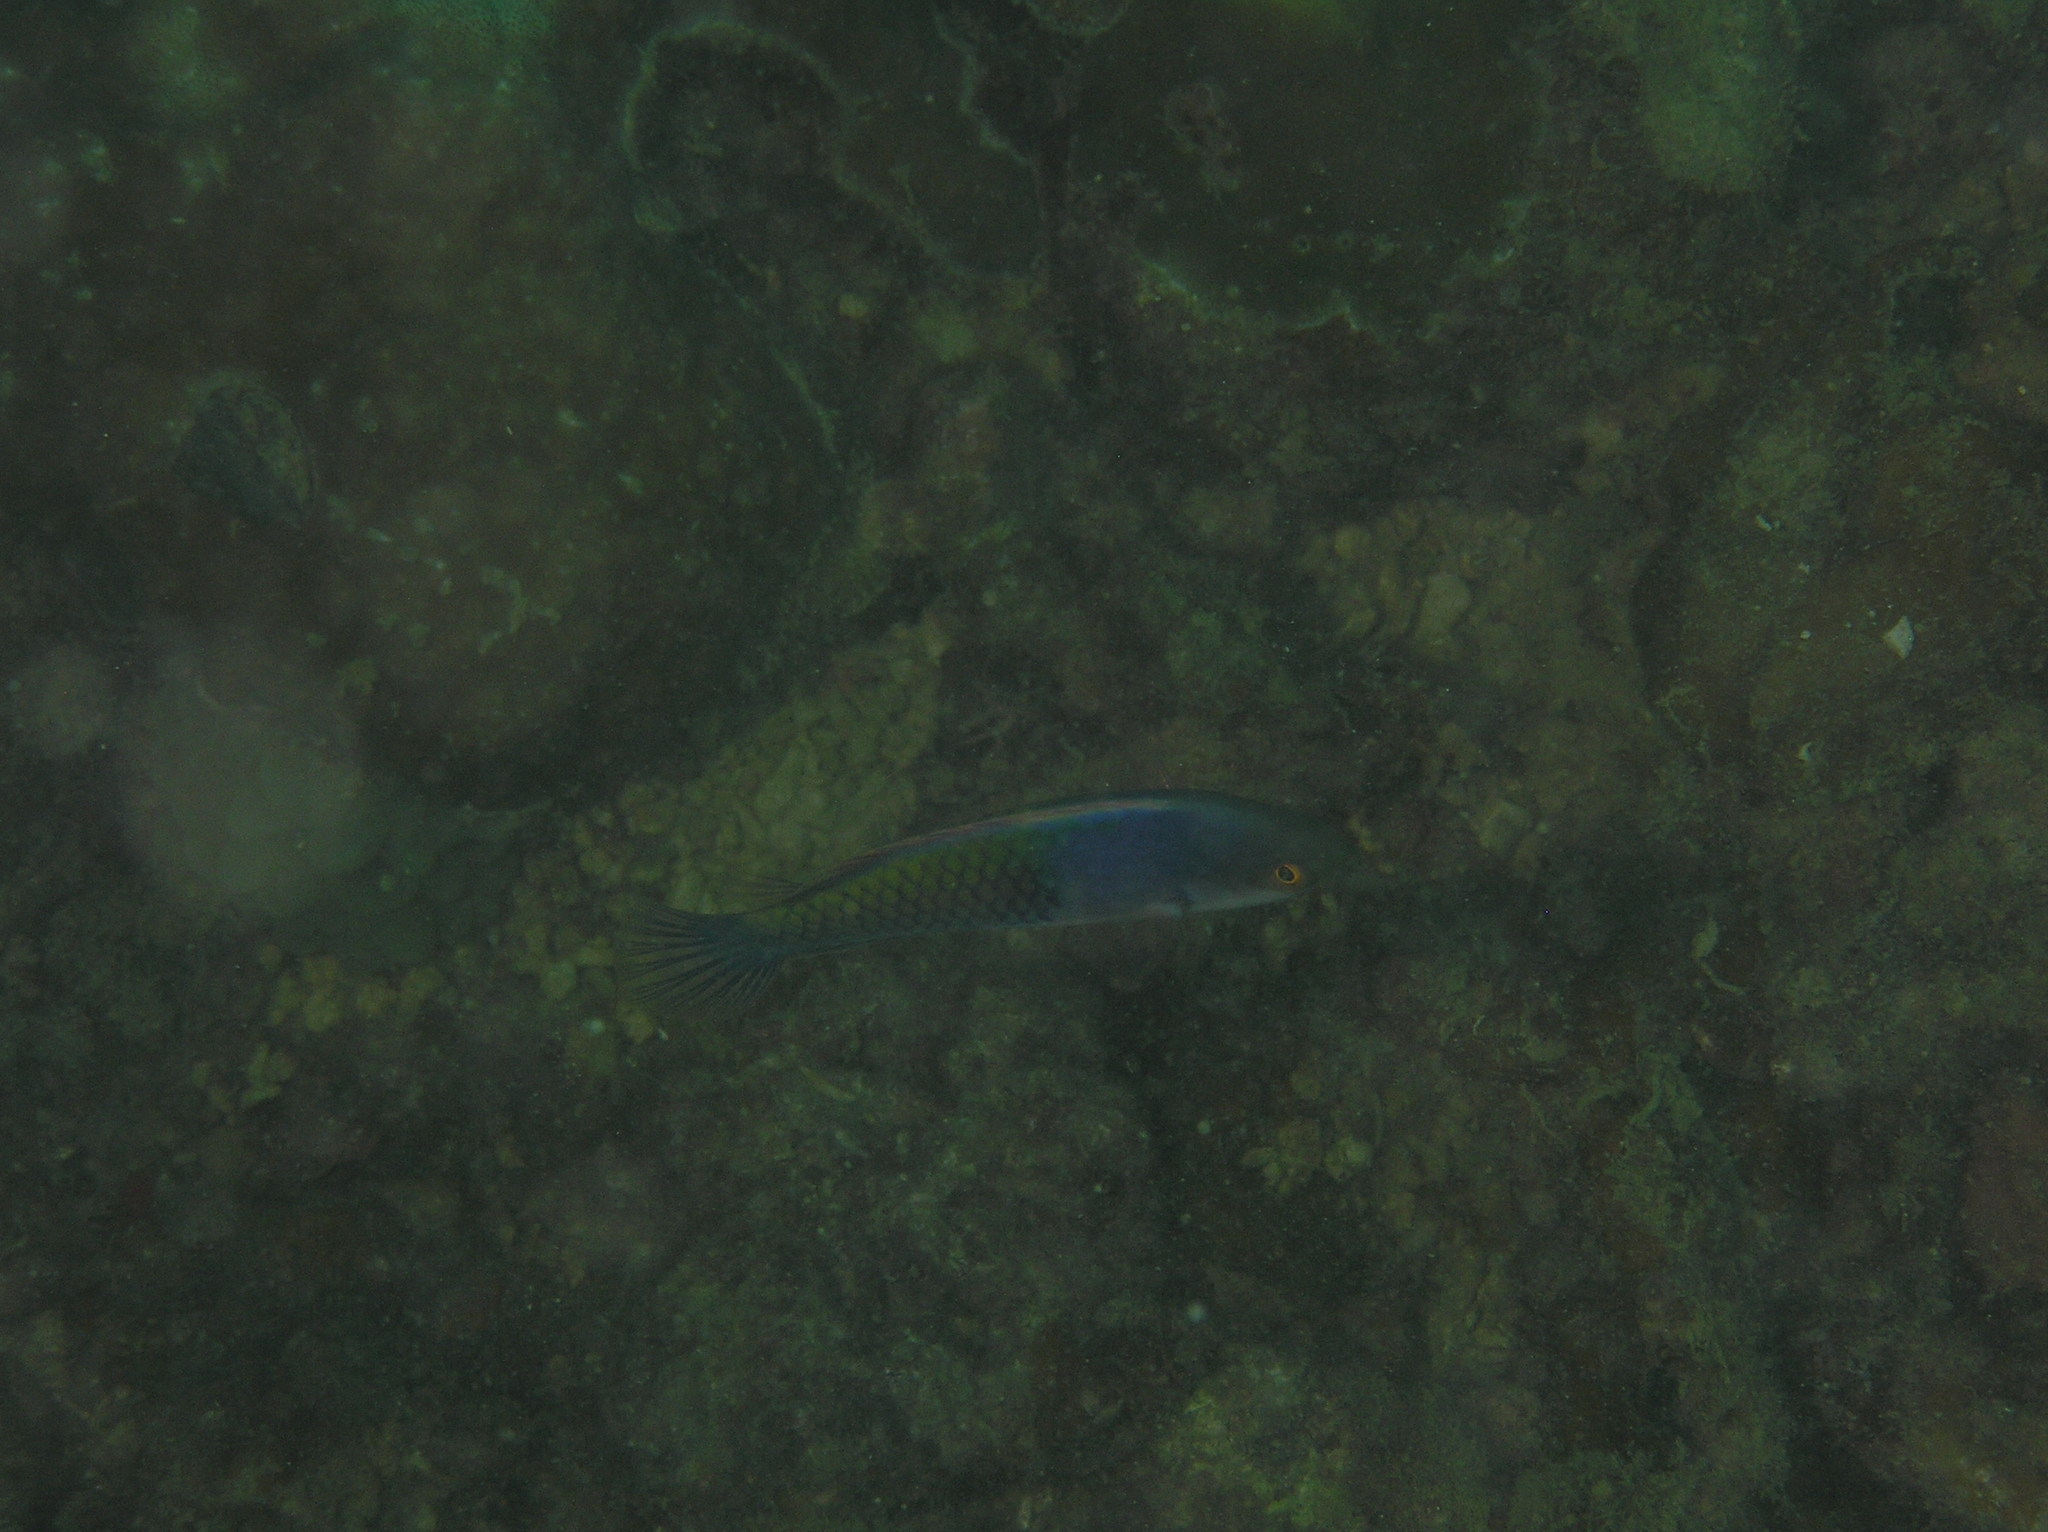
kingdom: Animalia
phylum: Chordata
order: Perciformes
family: Labridae
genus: Cirrhilabrus
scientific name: Cirrhilabrus cyanopleura
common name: Coralline wrasse
